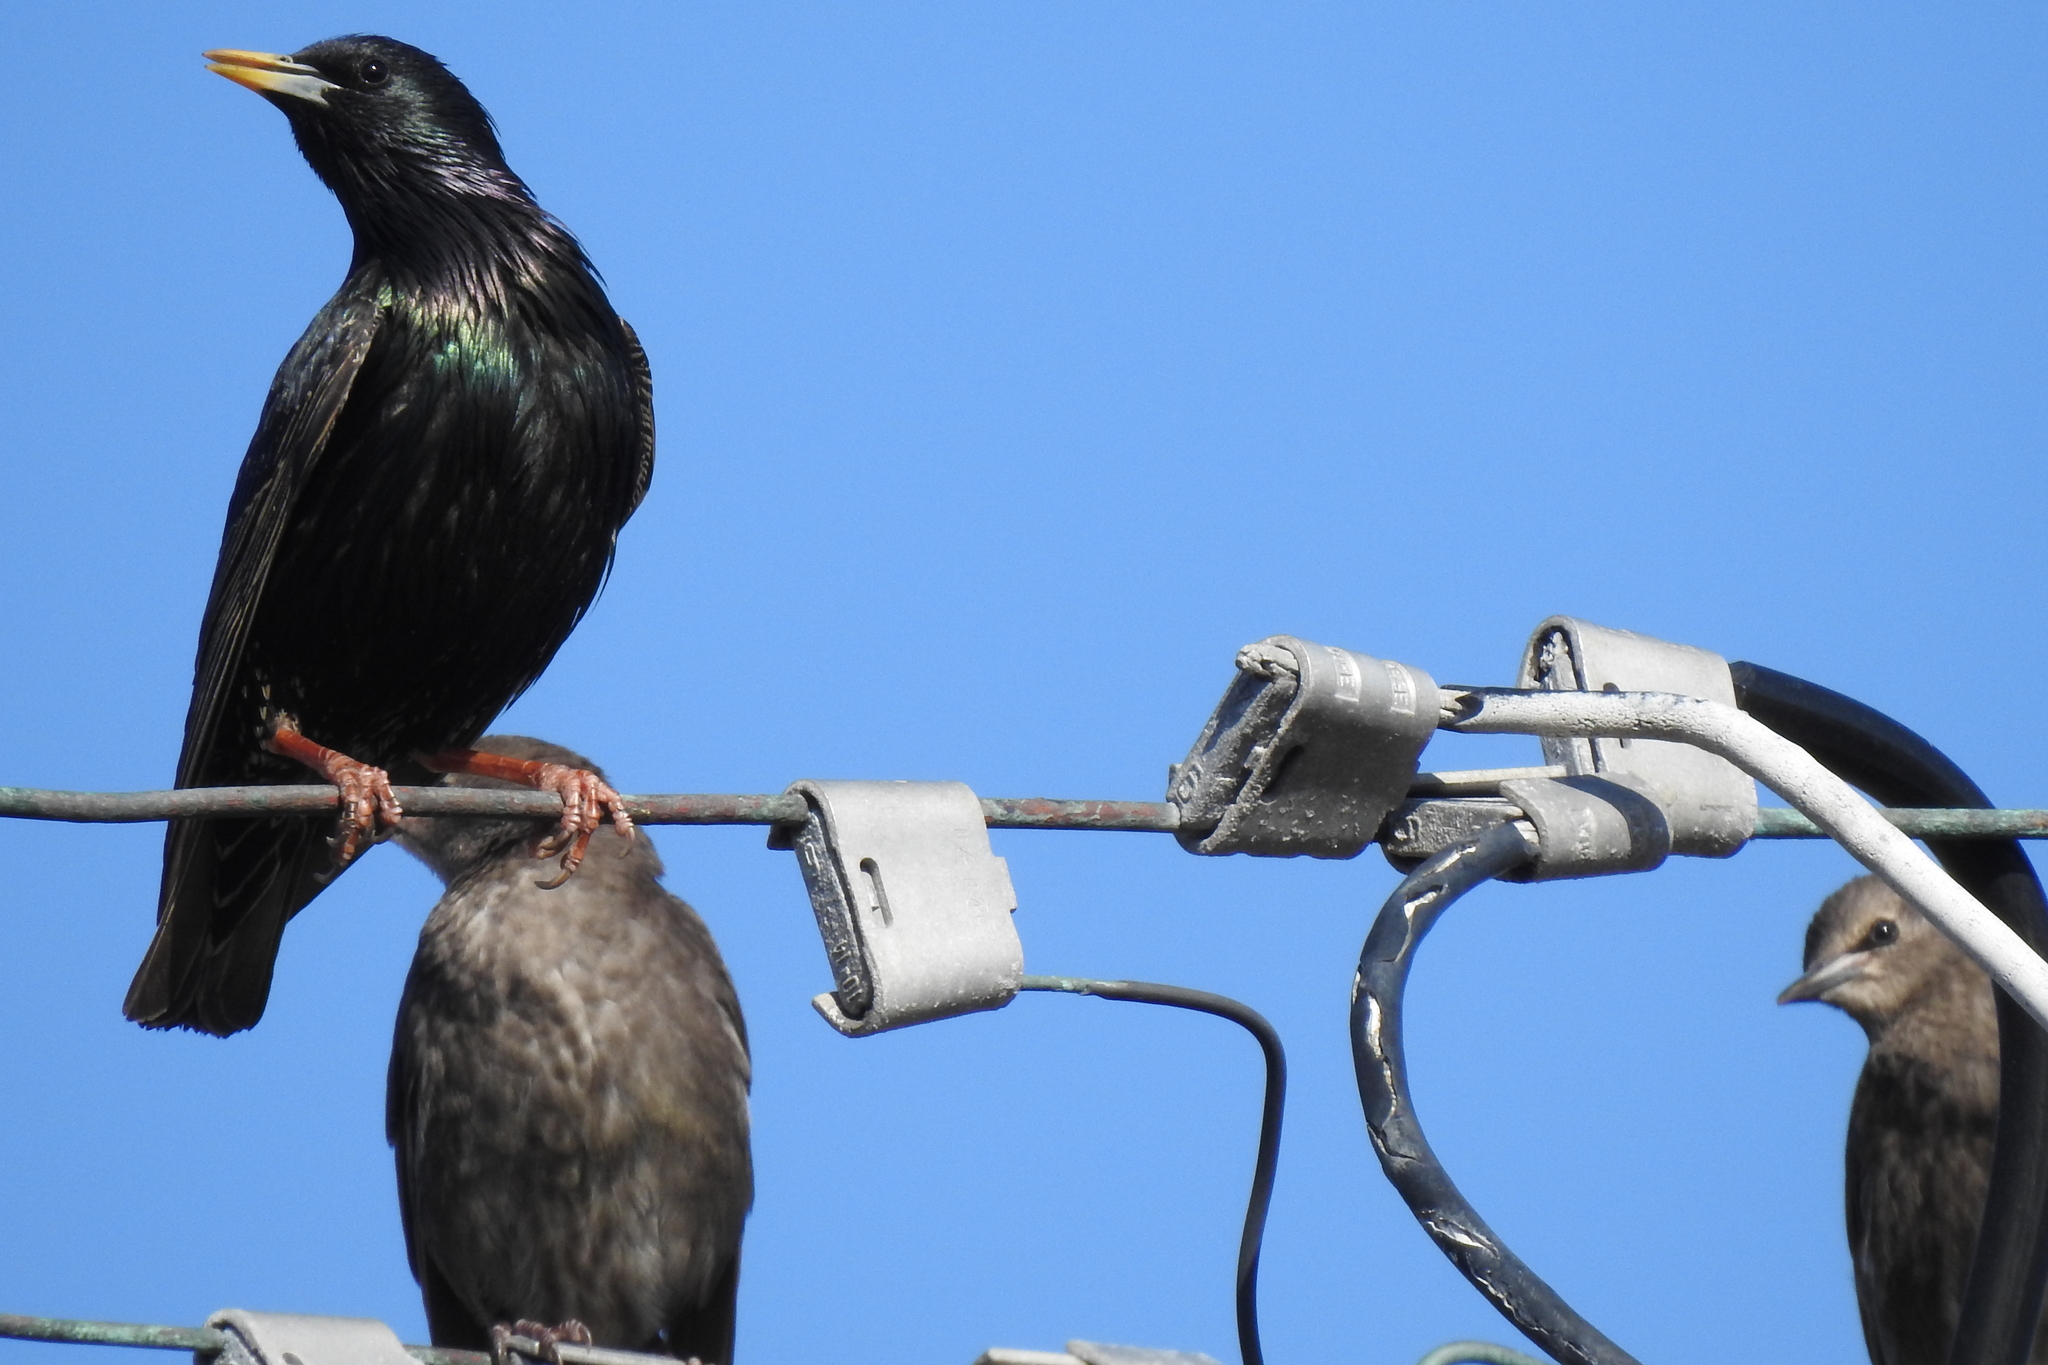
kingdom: Animalia
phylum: Chordata
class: Aves
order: Passeriformes
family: Sturnidae
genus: Sturnus
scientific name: Sturnus vulgaris
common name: Common starling
